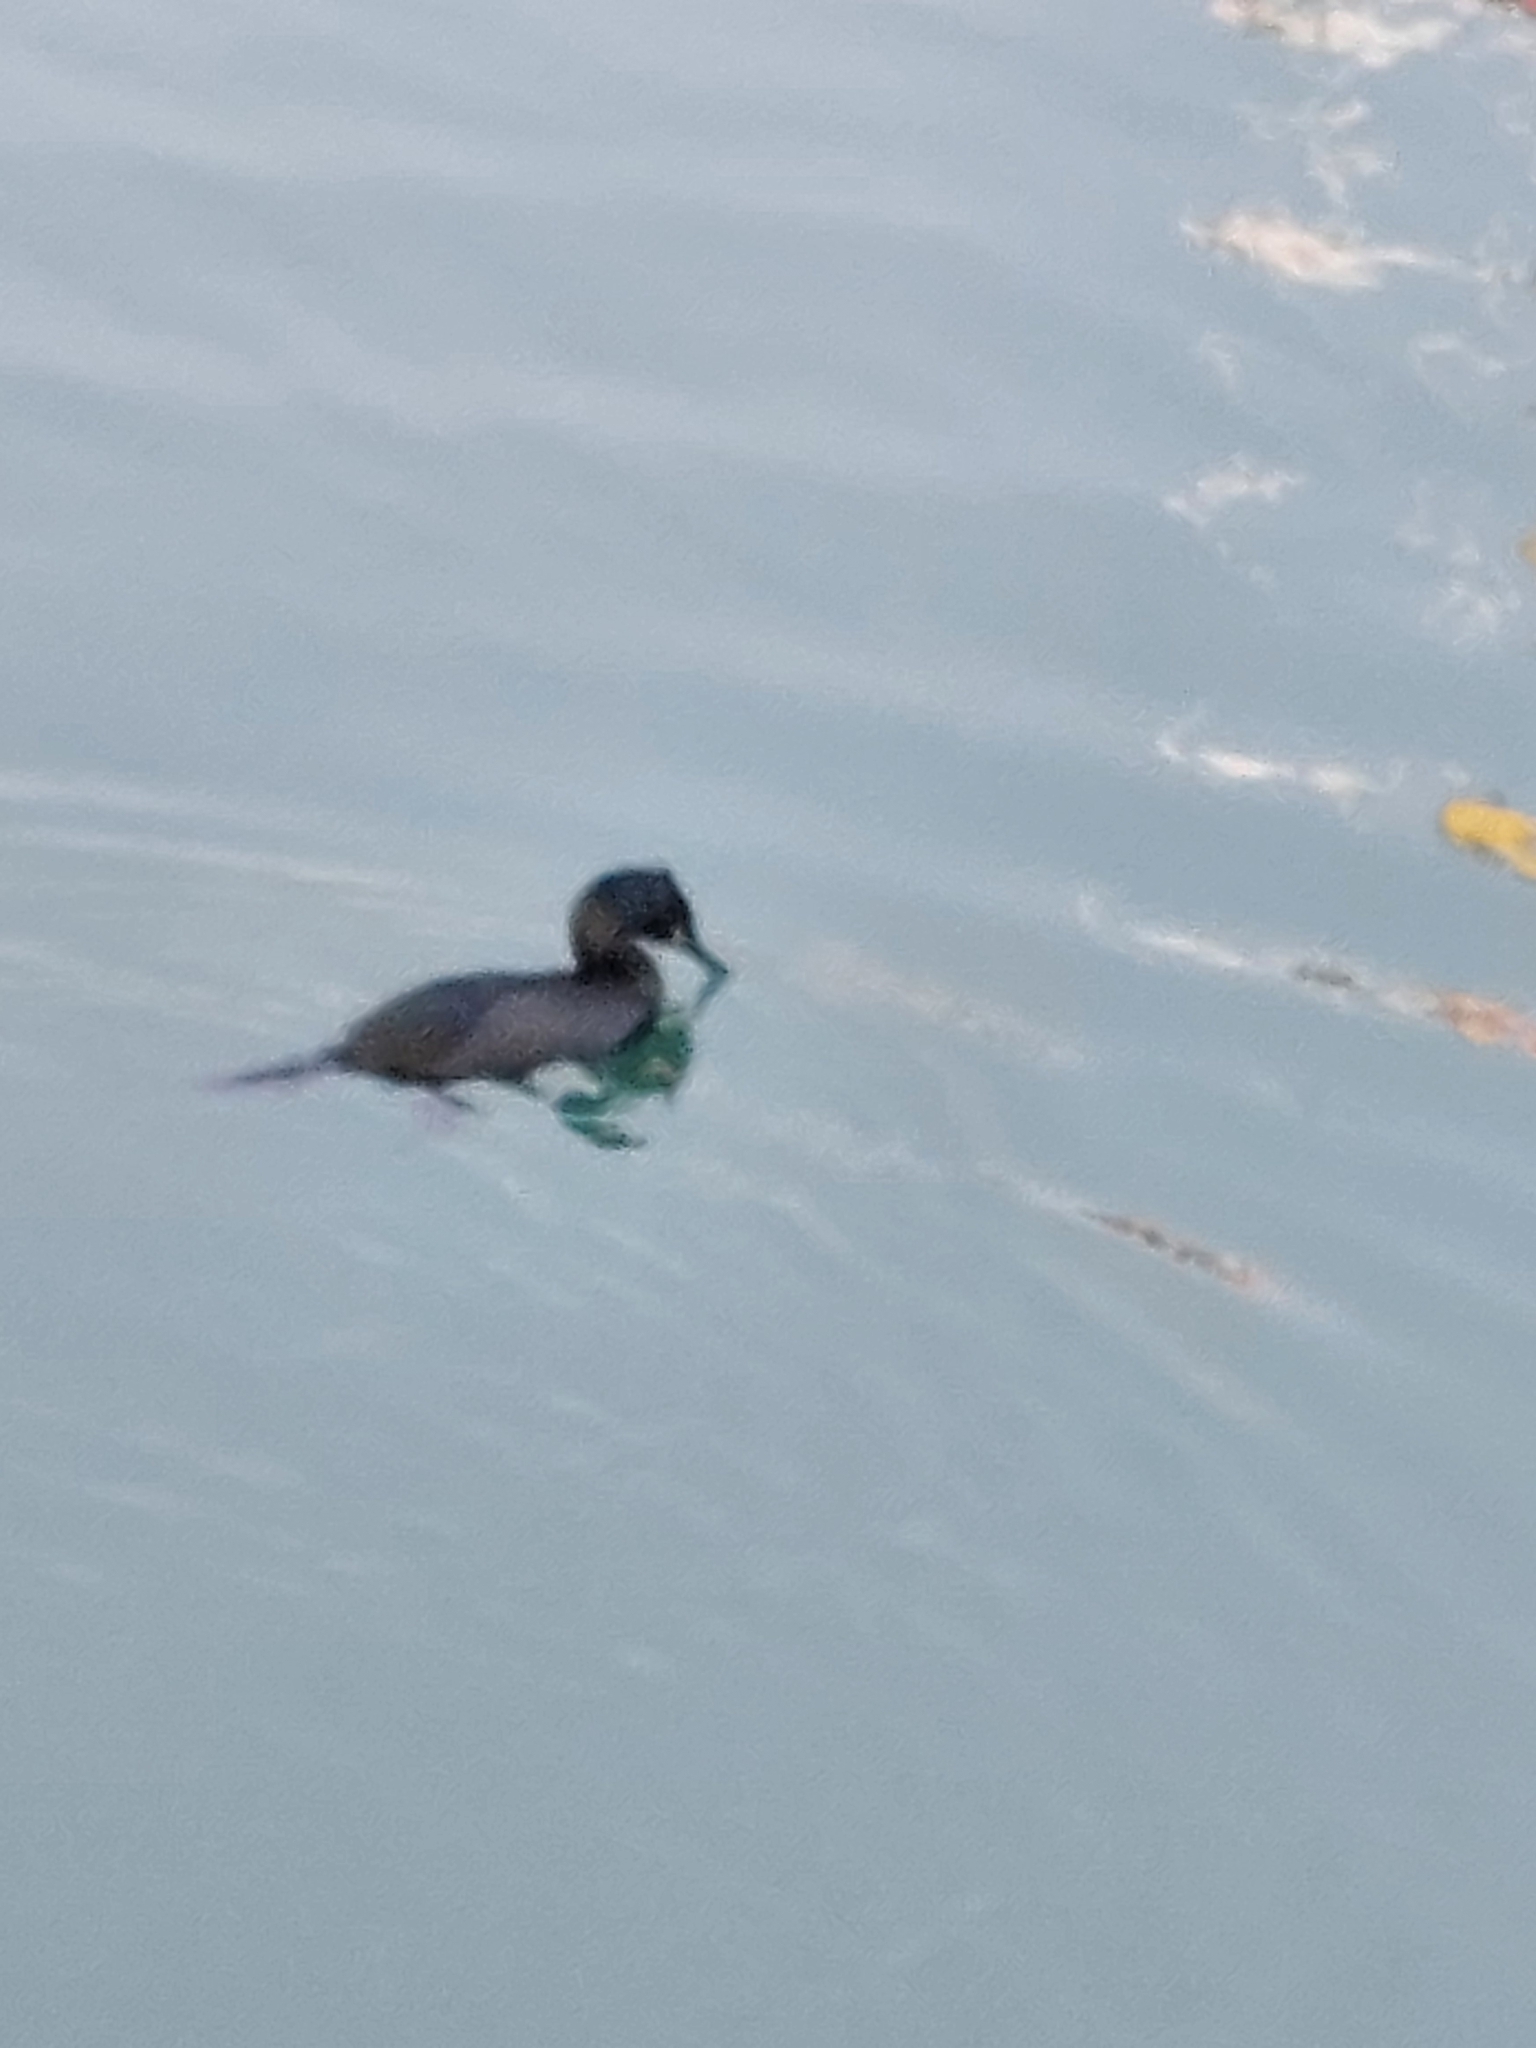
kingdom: Animalia
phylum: Chordata
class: Aves
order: Suliformes
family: Phalacrocoracidae
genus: Phalacrocorax
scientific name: Phalacrocorax aristotelis
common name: European shag
